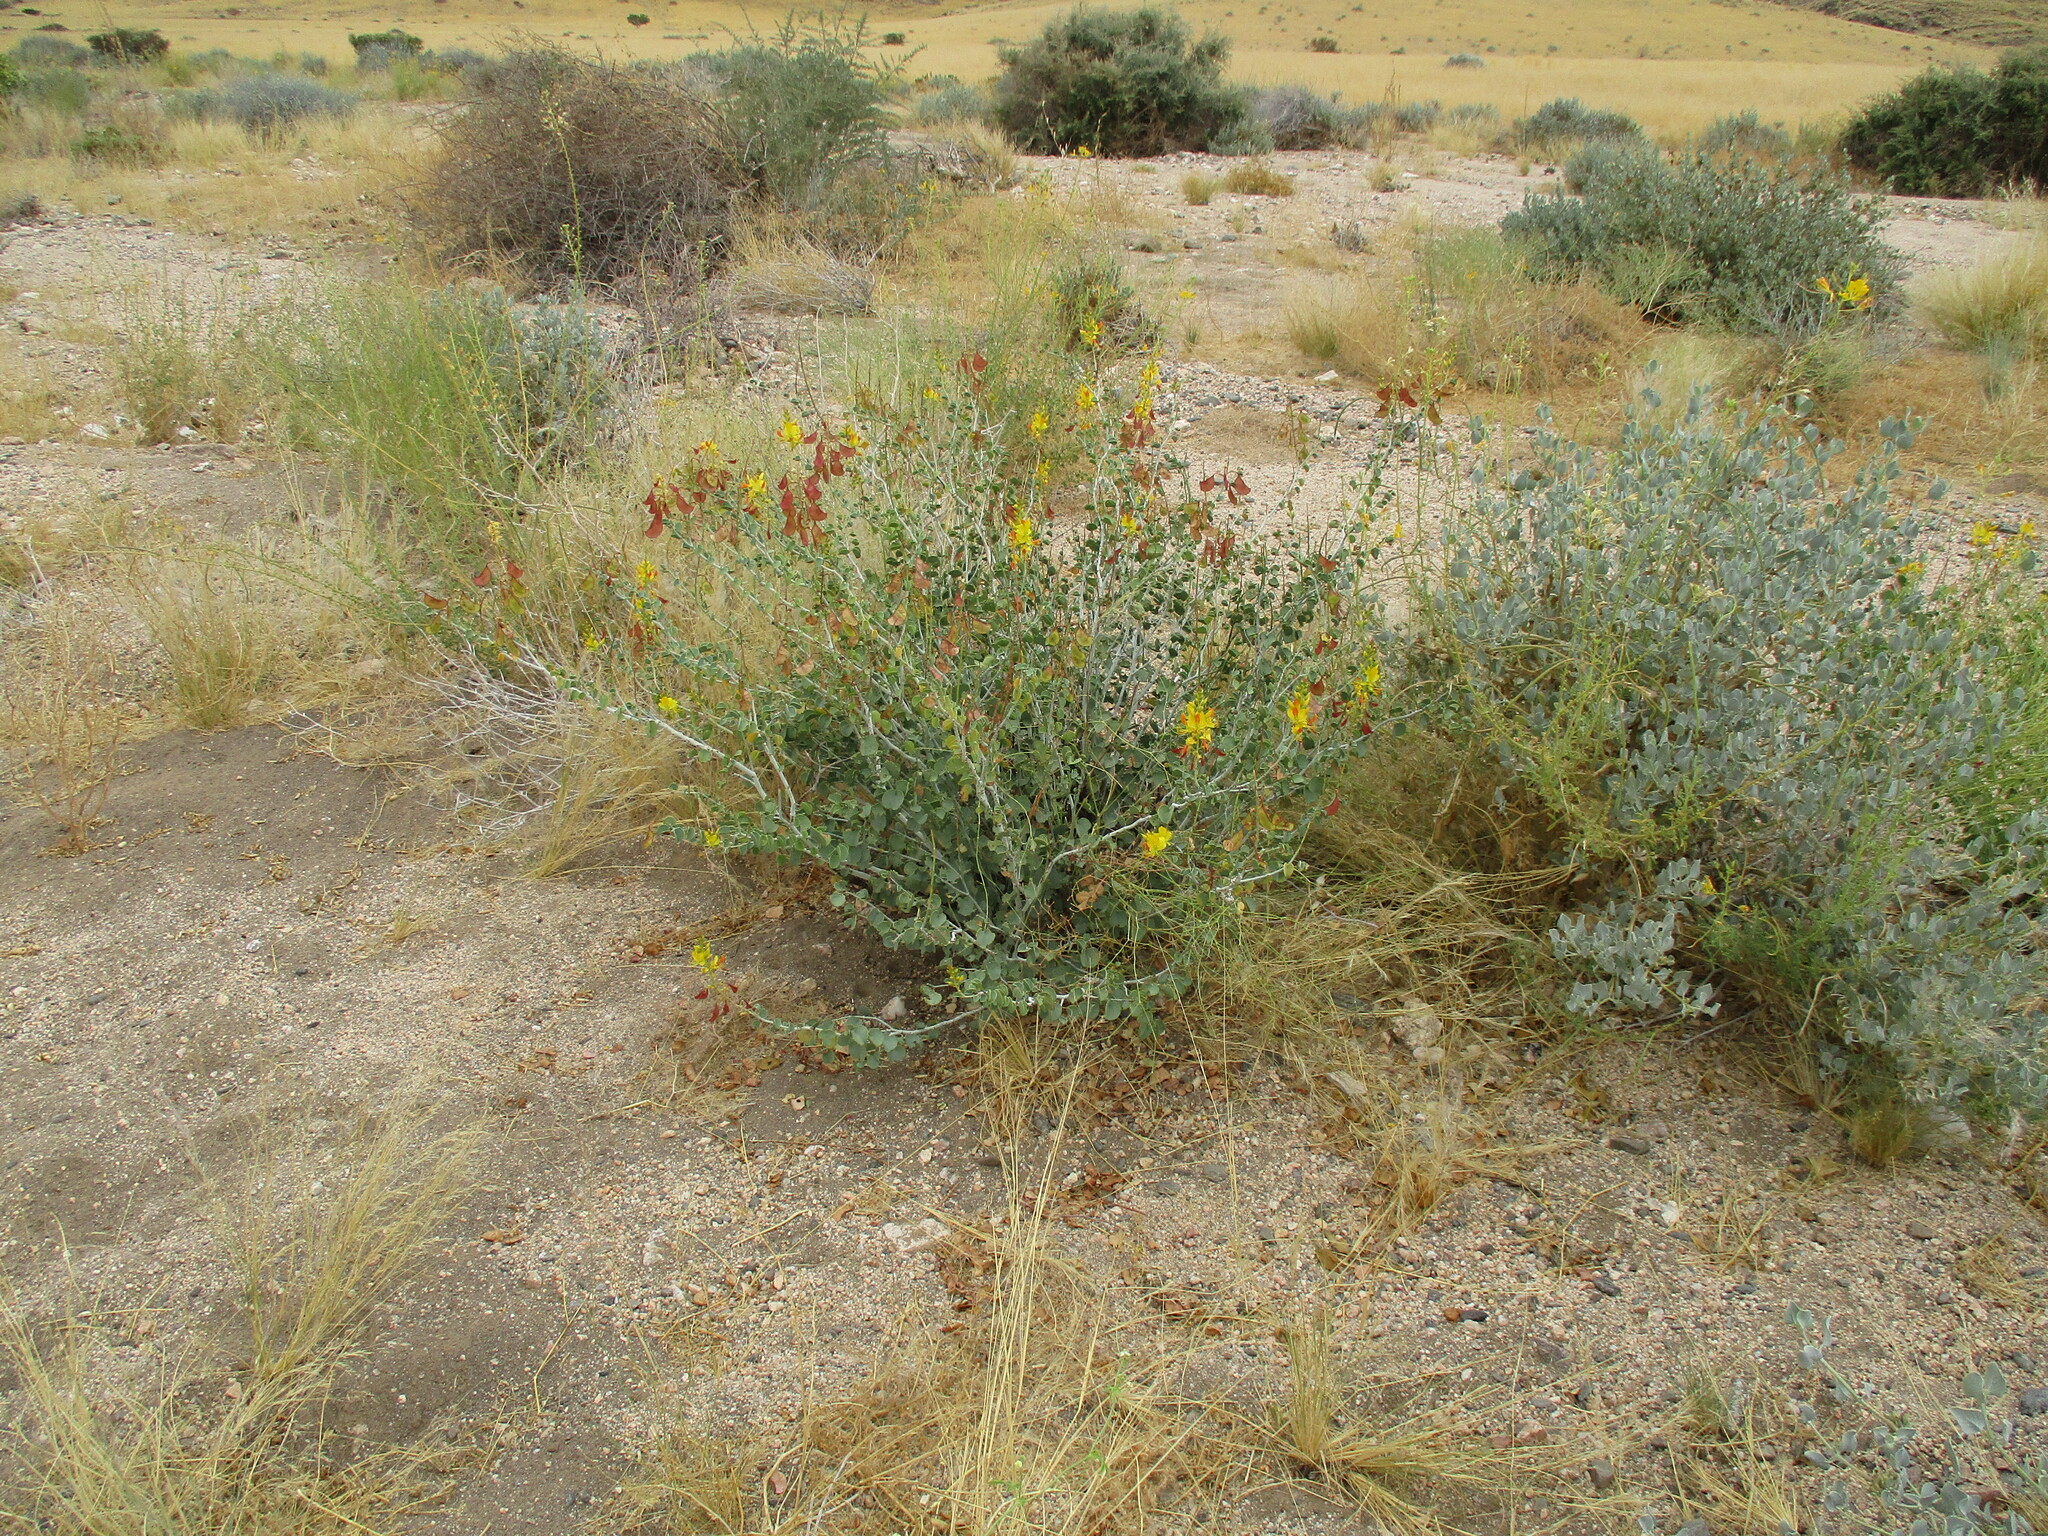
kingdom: Plantae
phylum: Tracheophyta
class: Magnoliopsida
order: Fabales
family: Fabaceae
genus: Adenolobus
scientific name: Adenolobus pechuelii
